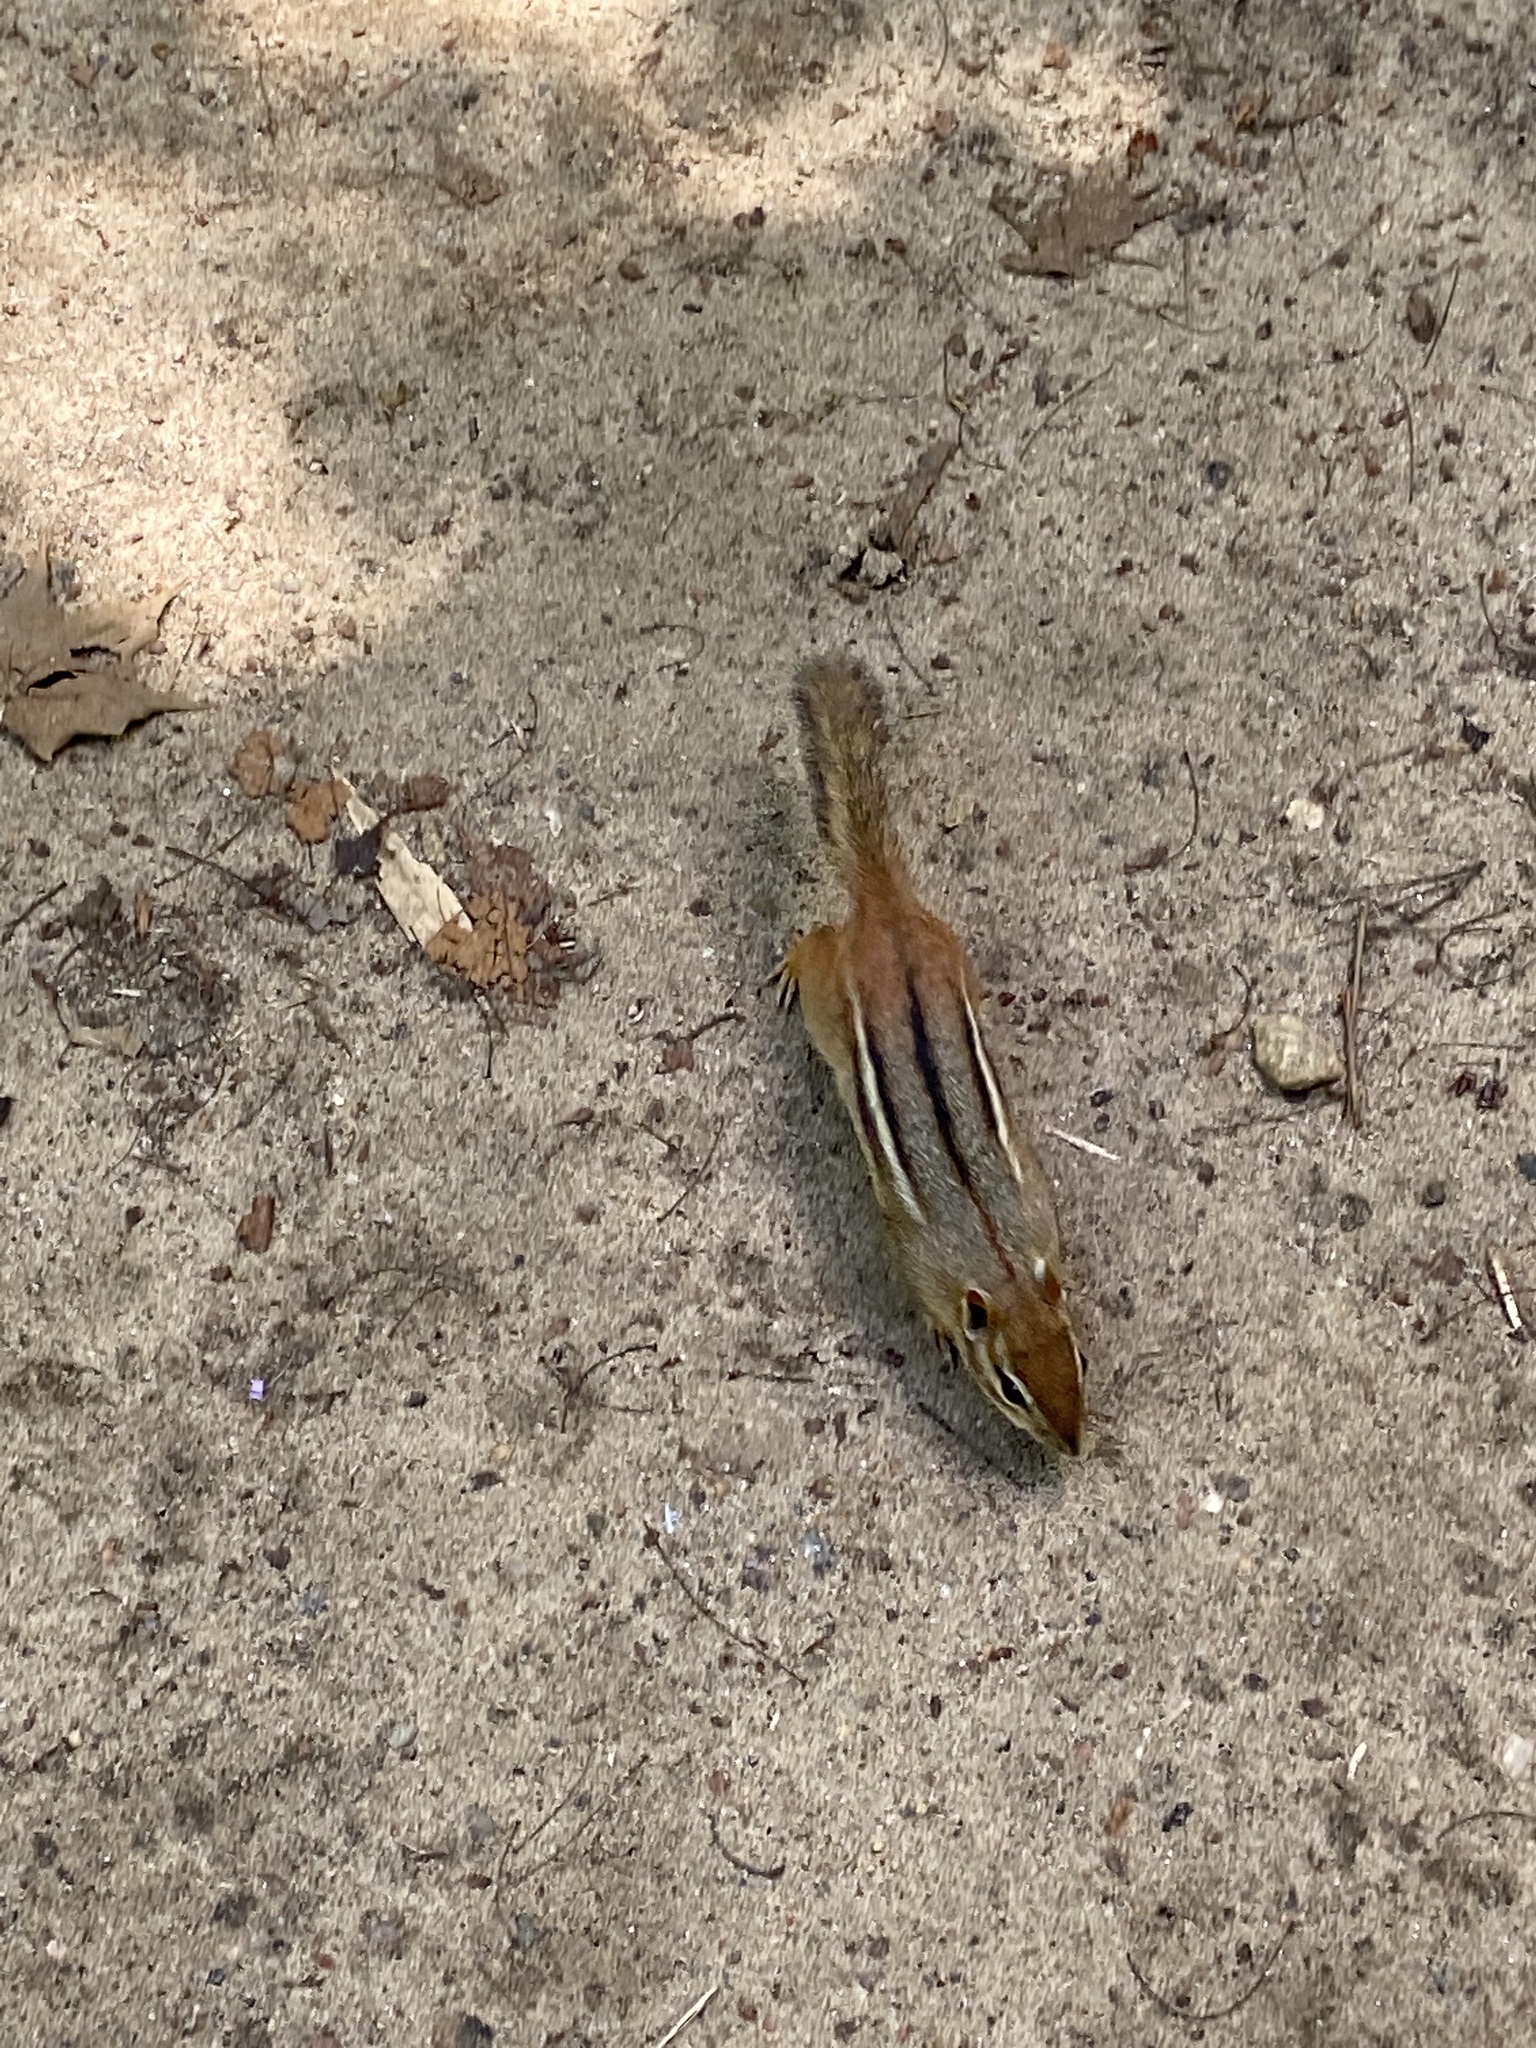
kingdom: Animalia
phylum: Chordata
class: Mammalia
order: Rodentia
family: Sciuridae
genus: Tamias
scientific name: Tamias striatus
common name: Eastern chipmunk
